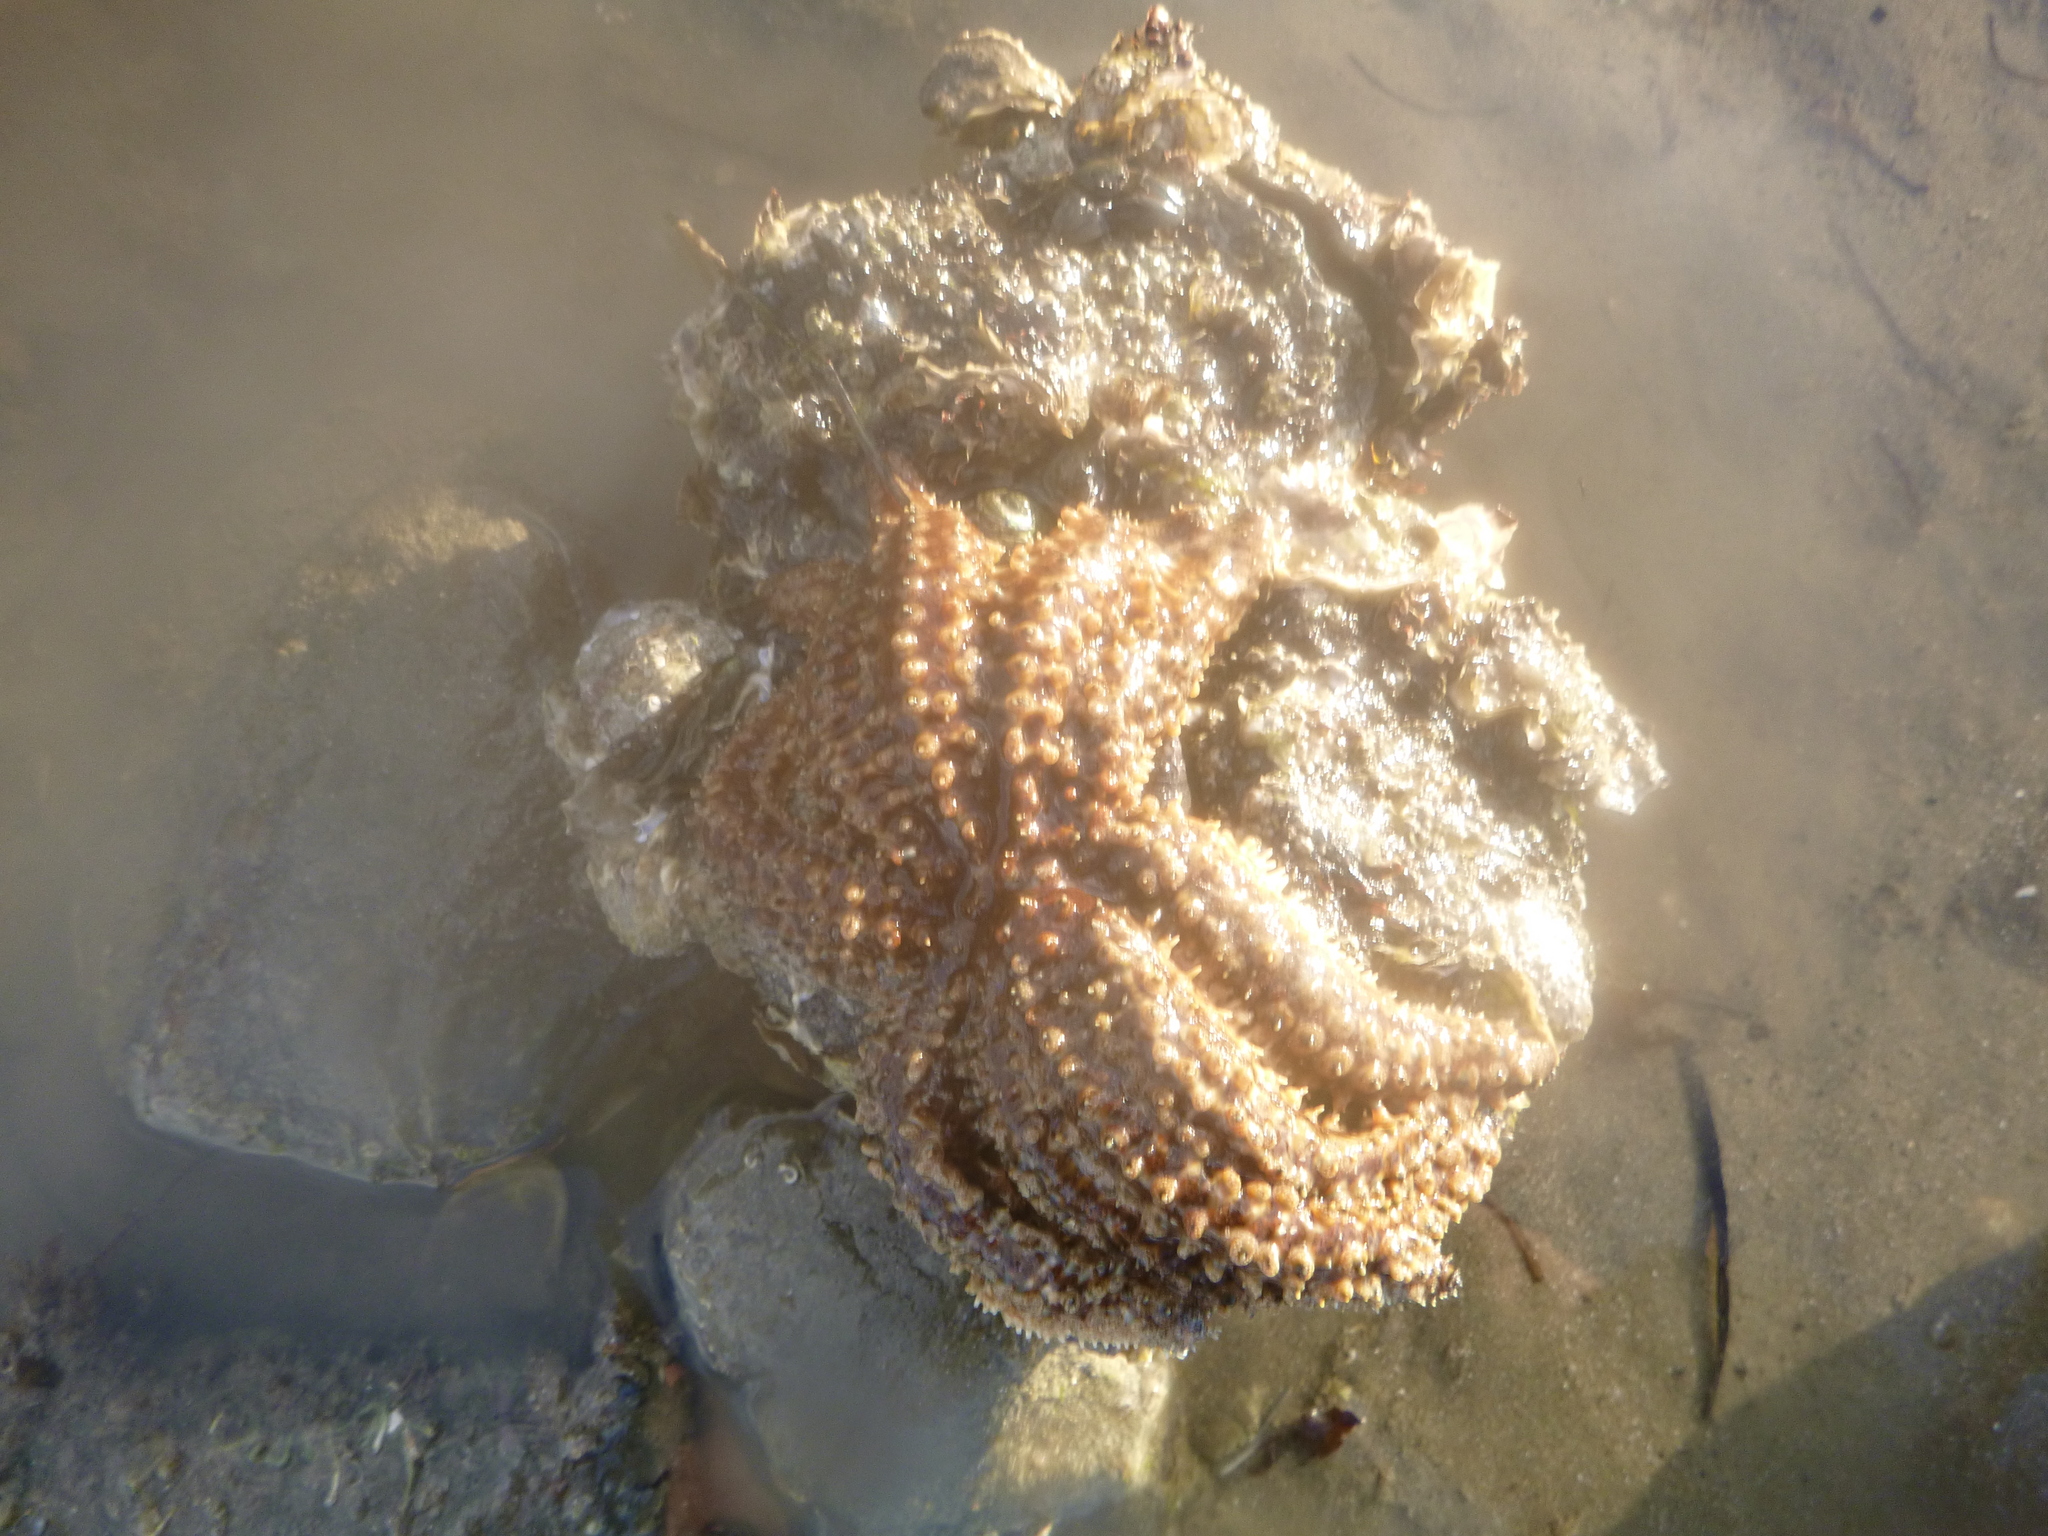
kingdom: Animalia
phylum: Echinodermata
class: Asteroidea
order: Forcipulatida
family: Asteriidae
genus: Coscinasterias
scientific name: Coscinasterias muricata
